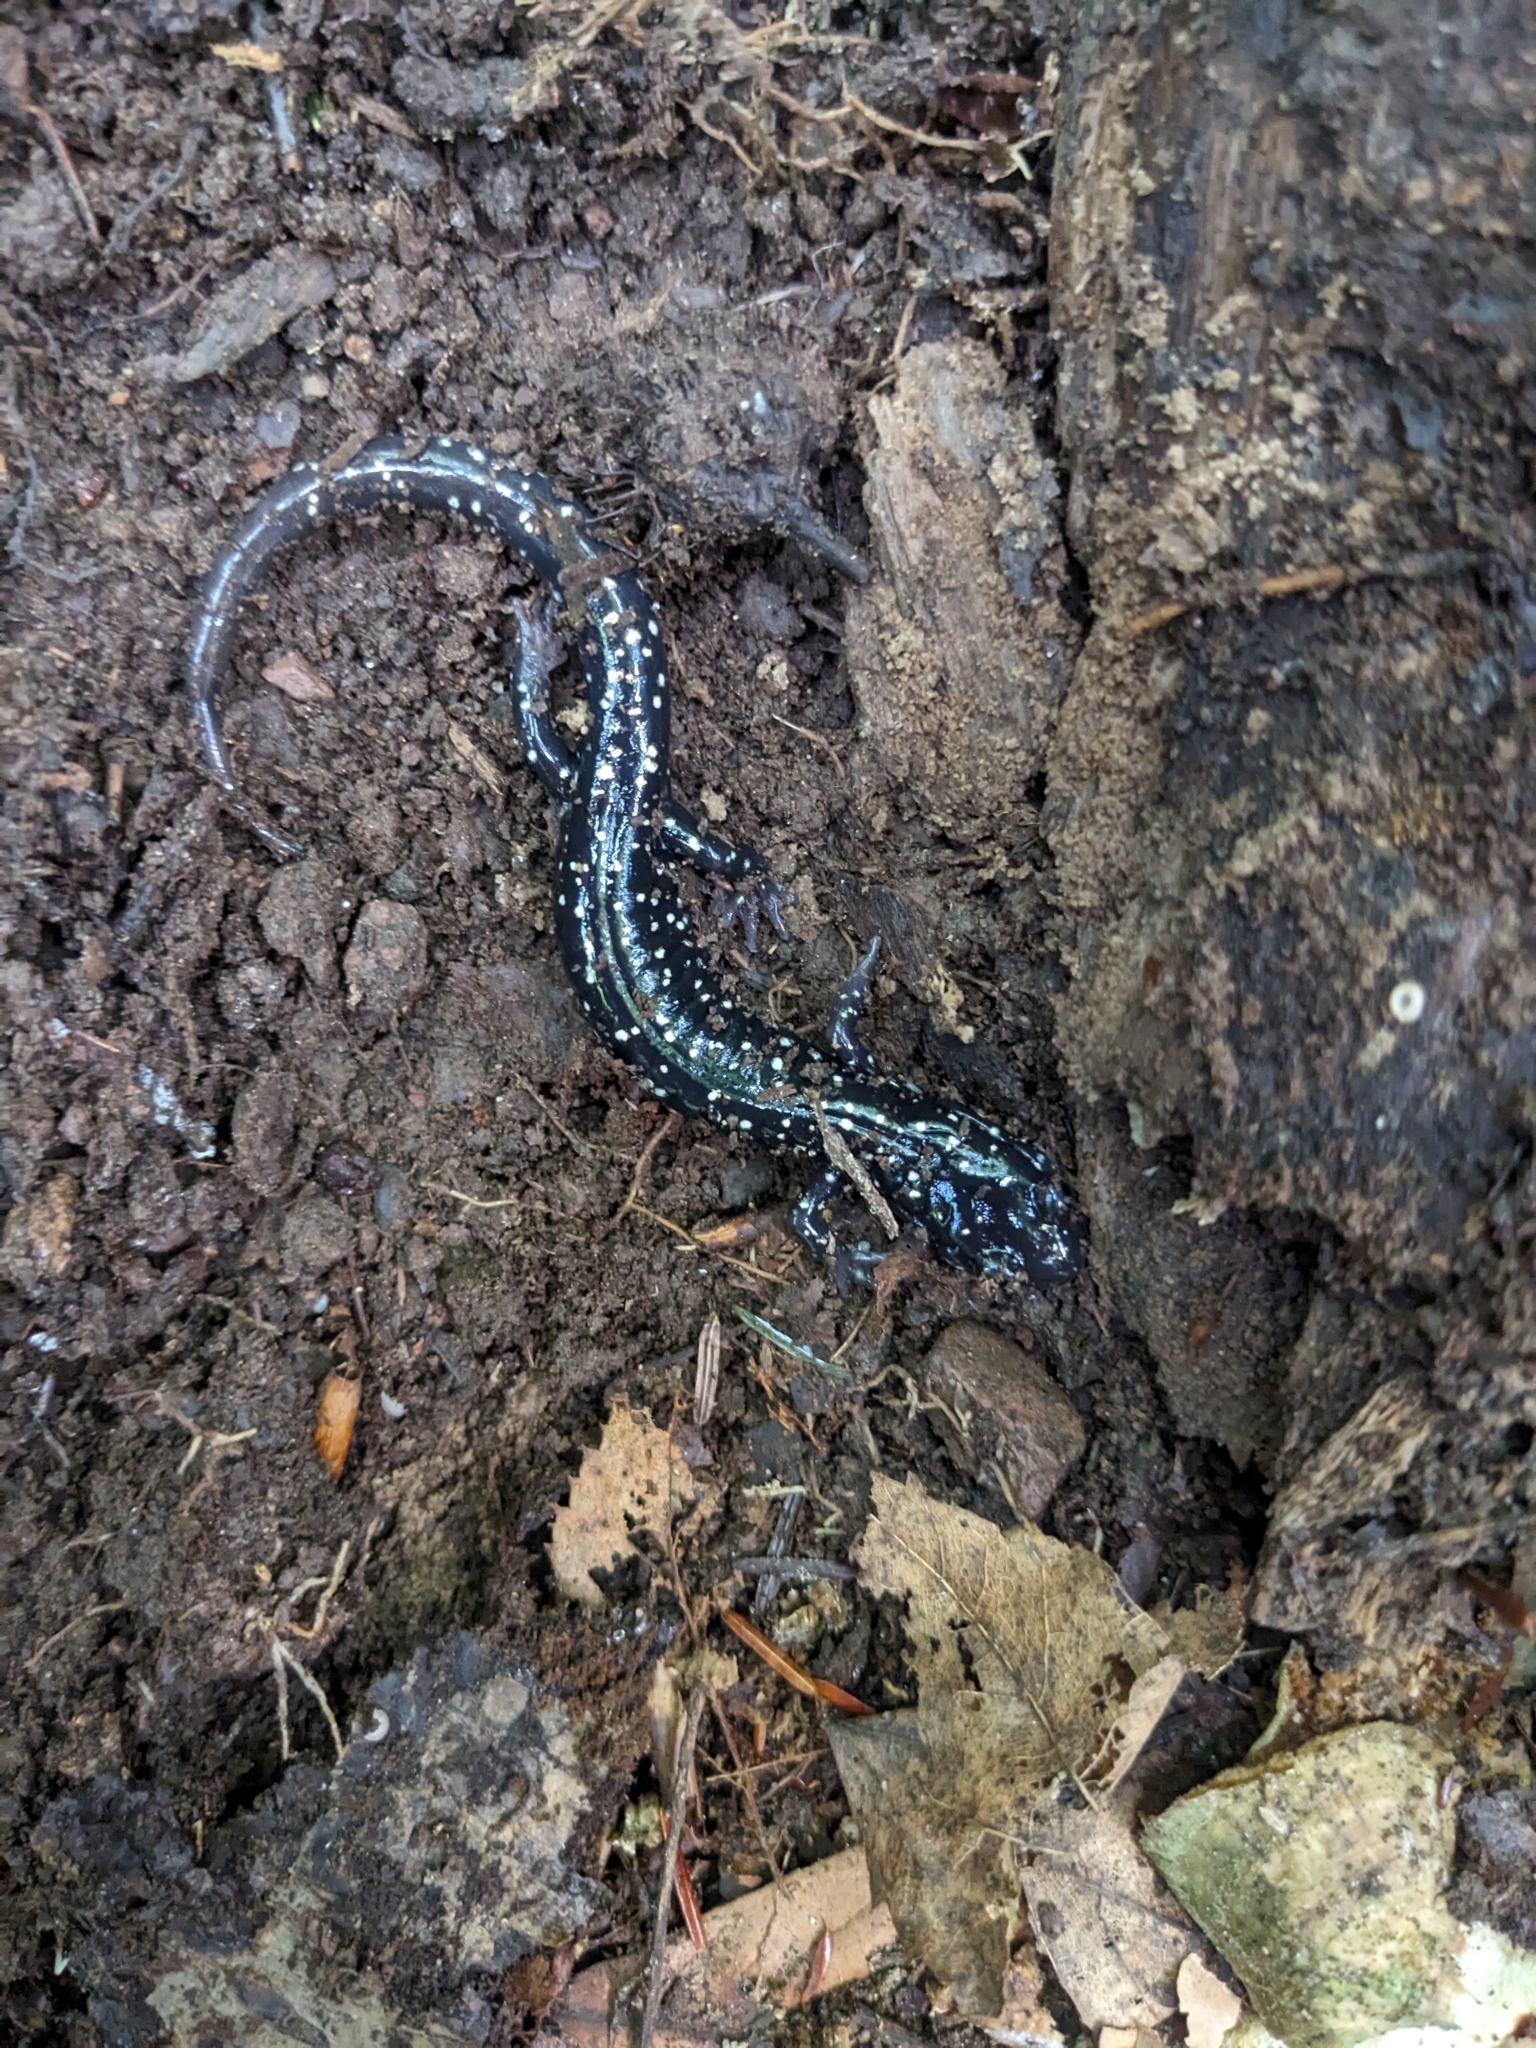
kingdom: Animalia
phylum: Chordata
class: Amphibia
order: Caudata
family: Plethodontidae
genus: Plethodon
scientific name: Plethodon glutinosus
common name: Northern slimy salamander
